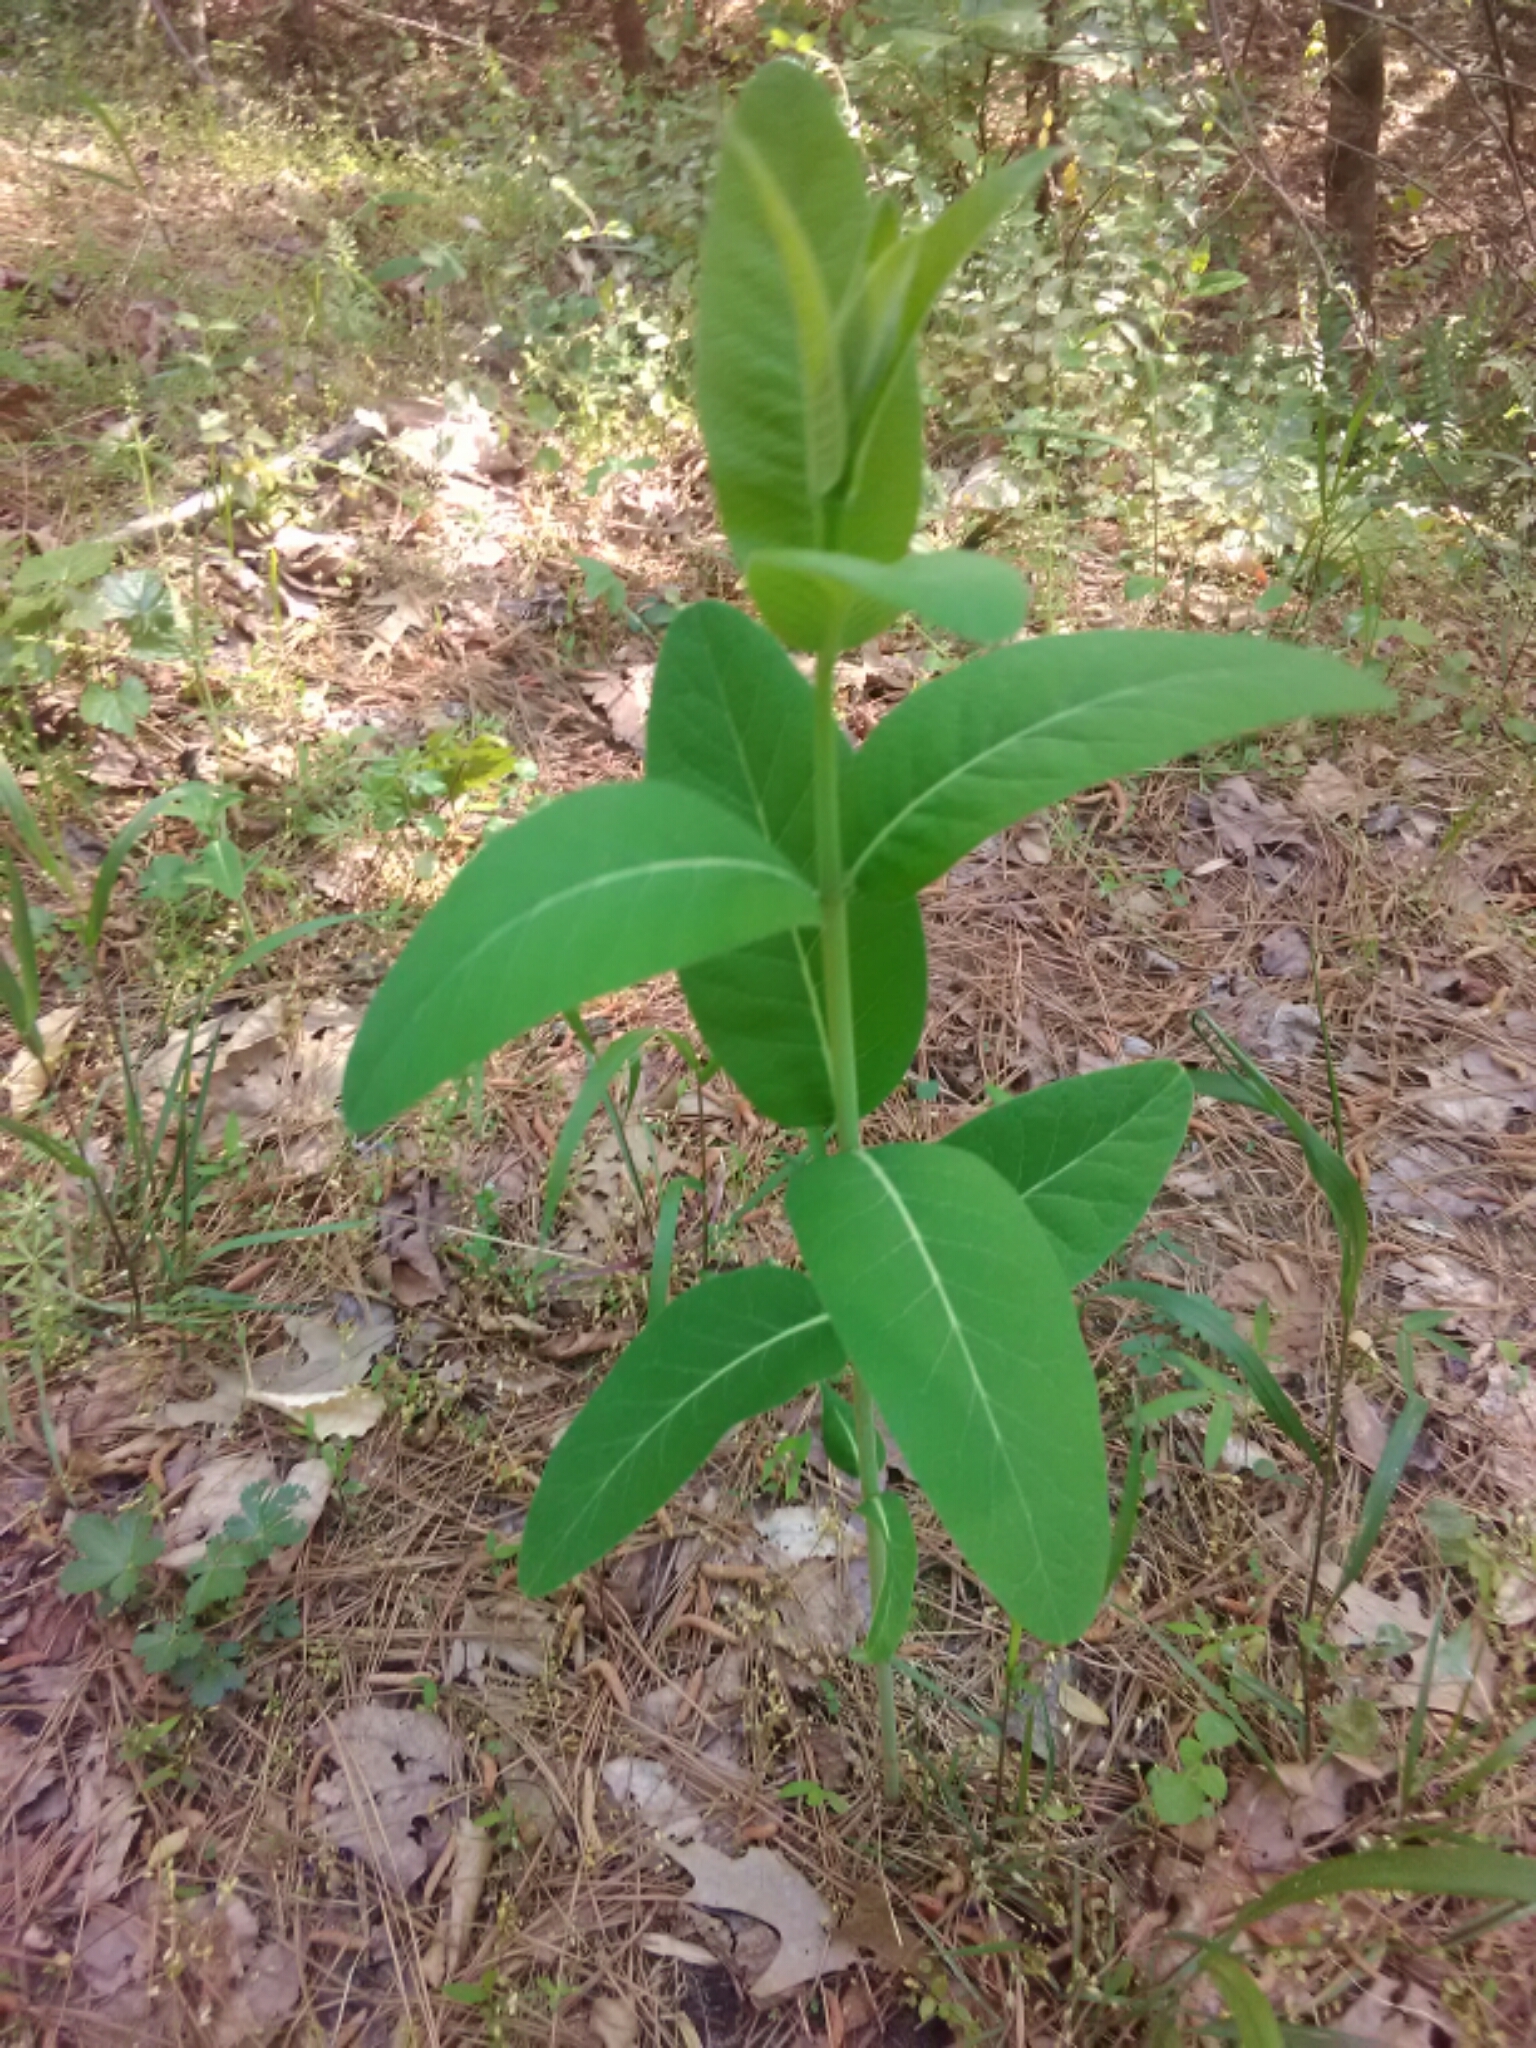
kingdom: Plantae
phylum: Tracheophyta
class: Magnoliopsida
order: Gentianales
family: Apocynaceae
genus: Apocynum
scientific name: Apocynum cannabinum
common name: Hemp dogbane
